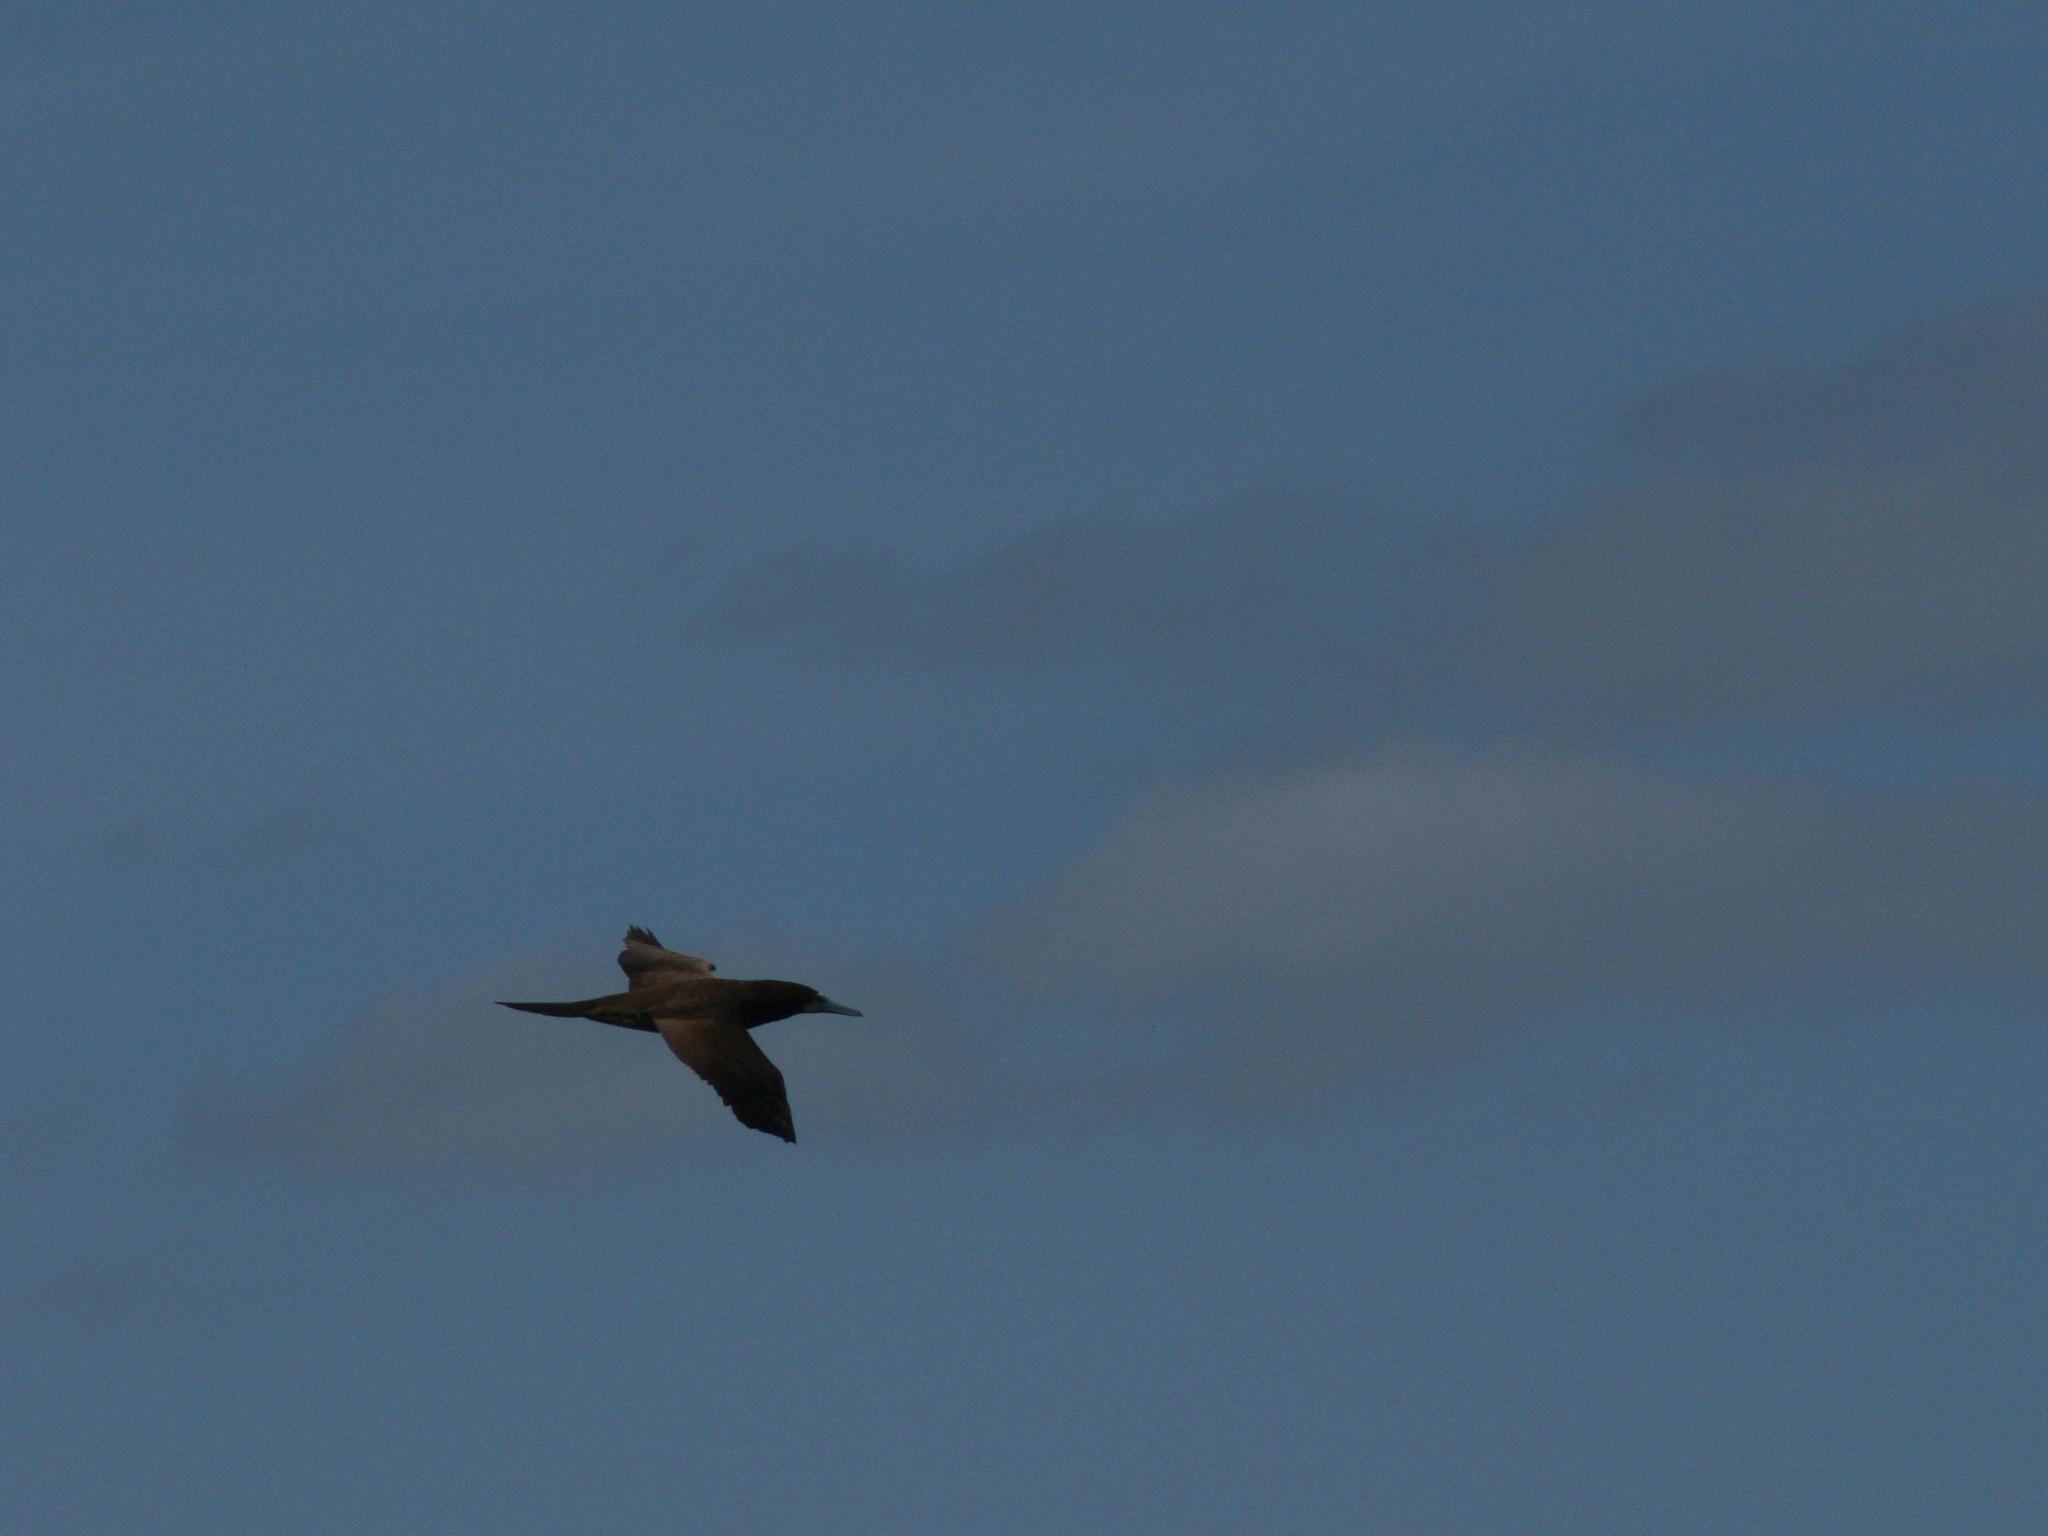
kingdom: Animalia
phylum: Chordata
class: Aves
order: Suliformes
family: Sulidae
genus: Sula
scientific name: Sula leucogaster
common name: Brown booby
